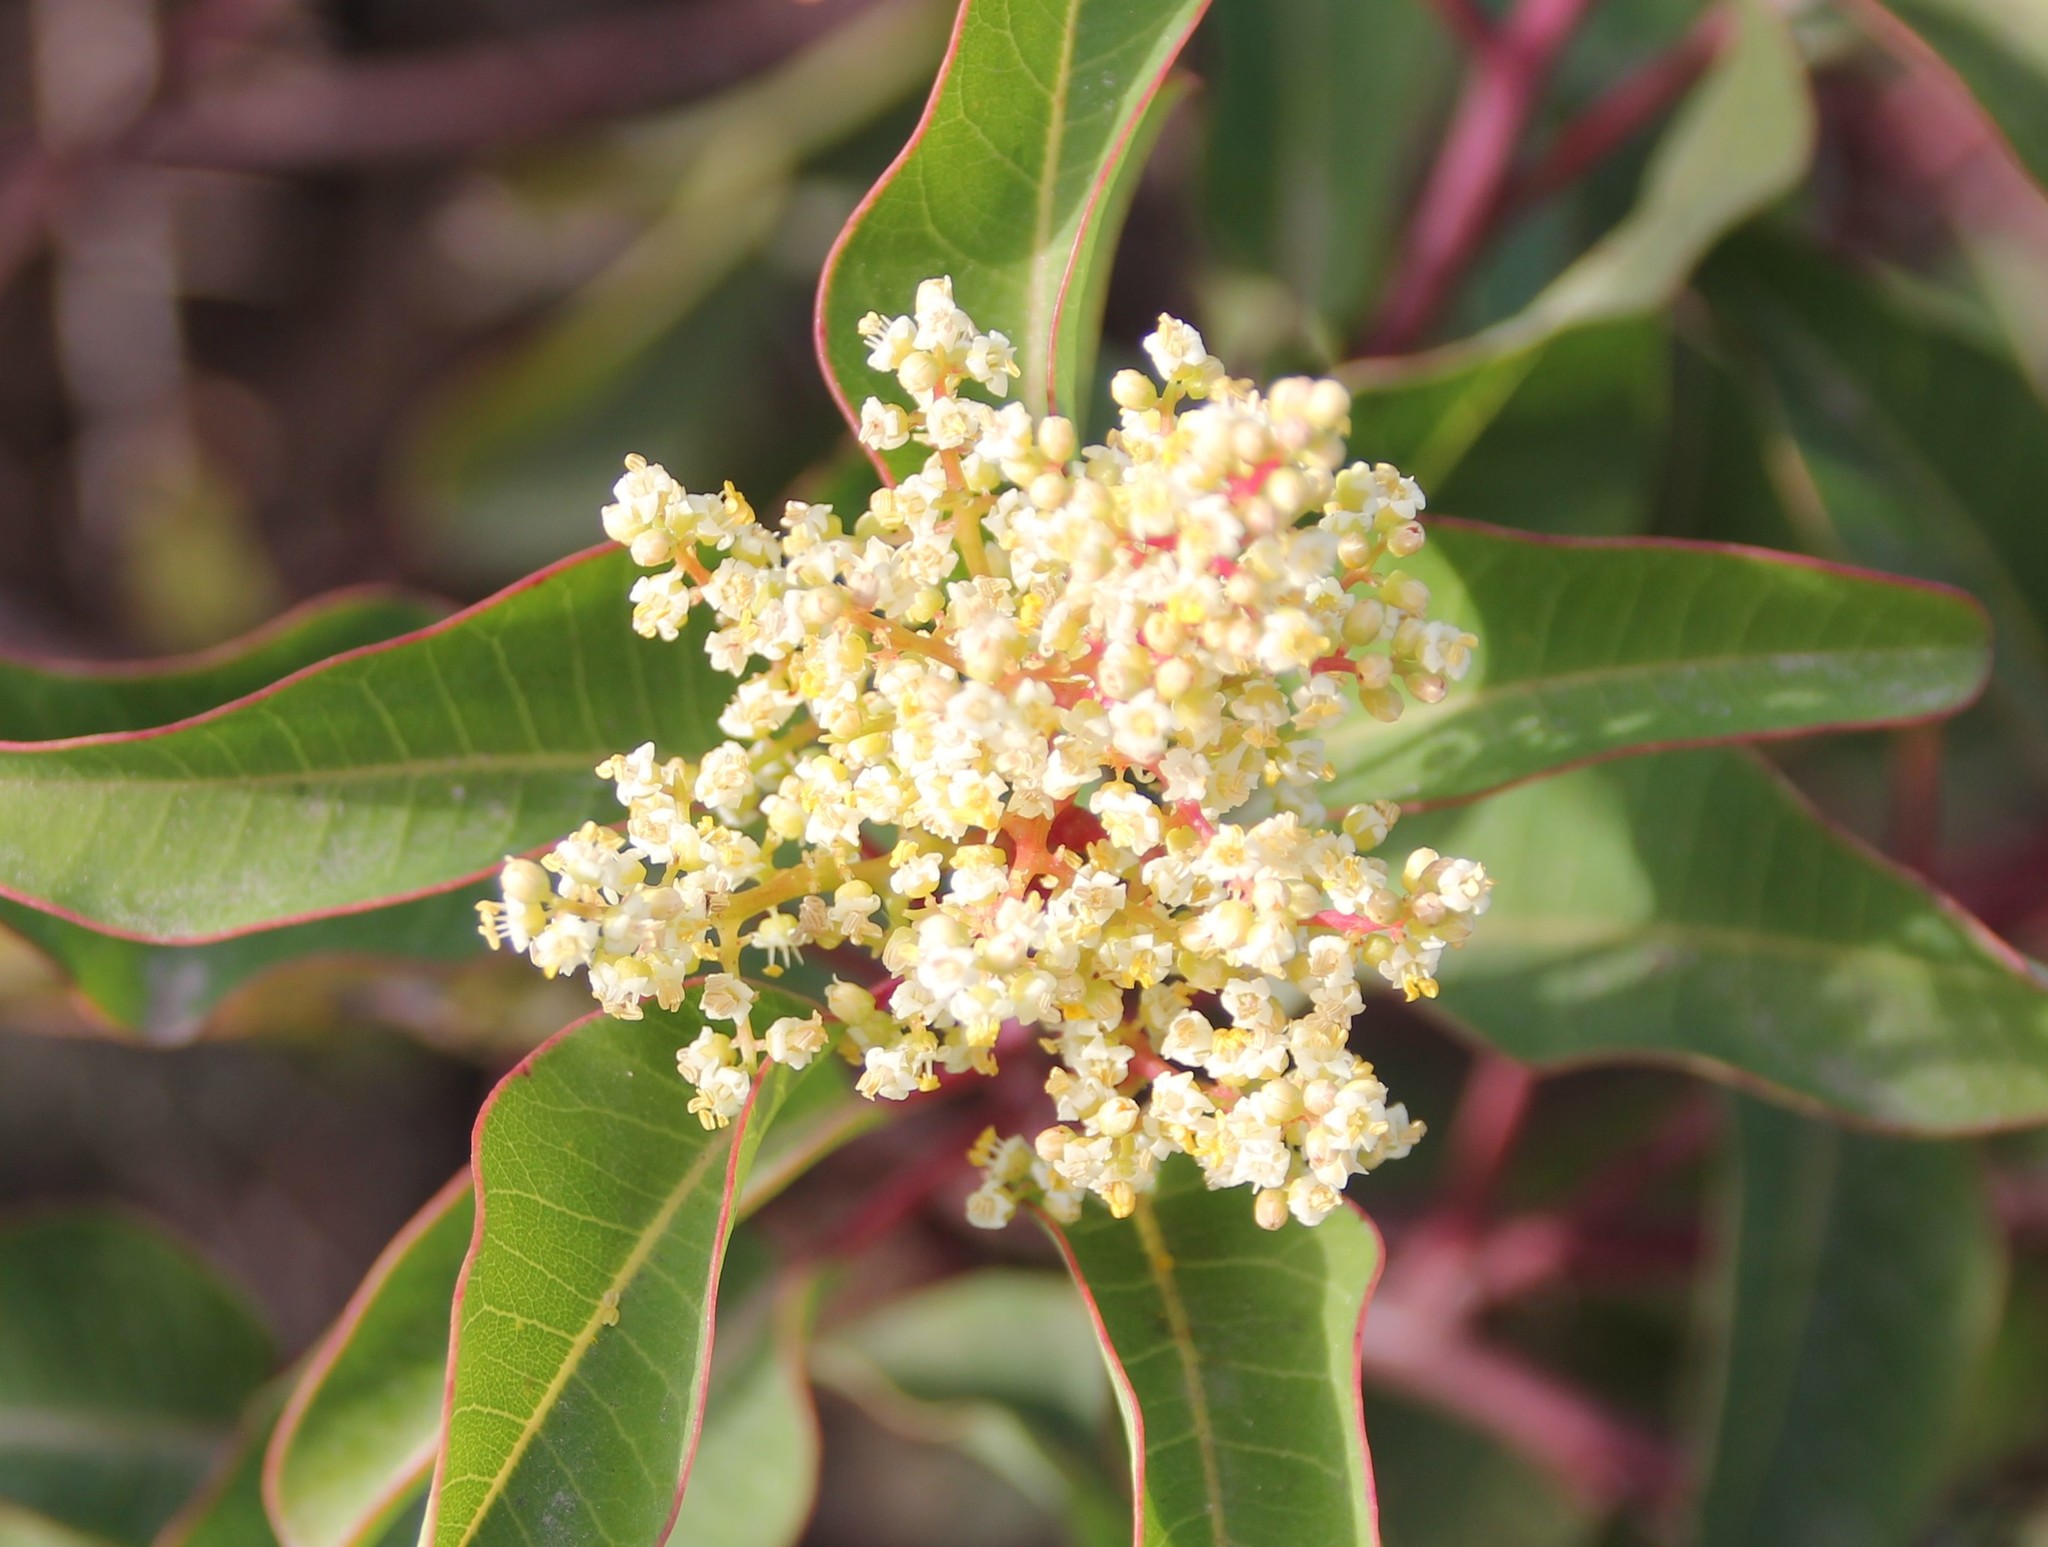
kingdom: Plantae
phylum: Tracheophyta
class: Magnoliopsida
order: Sapindales
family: Anacardiaceae
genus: Malosma
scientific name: Malosma laurina
